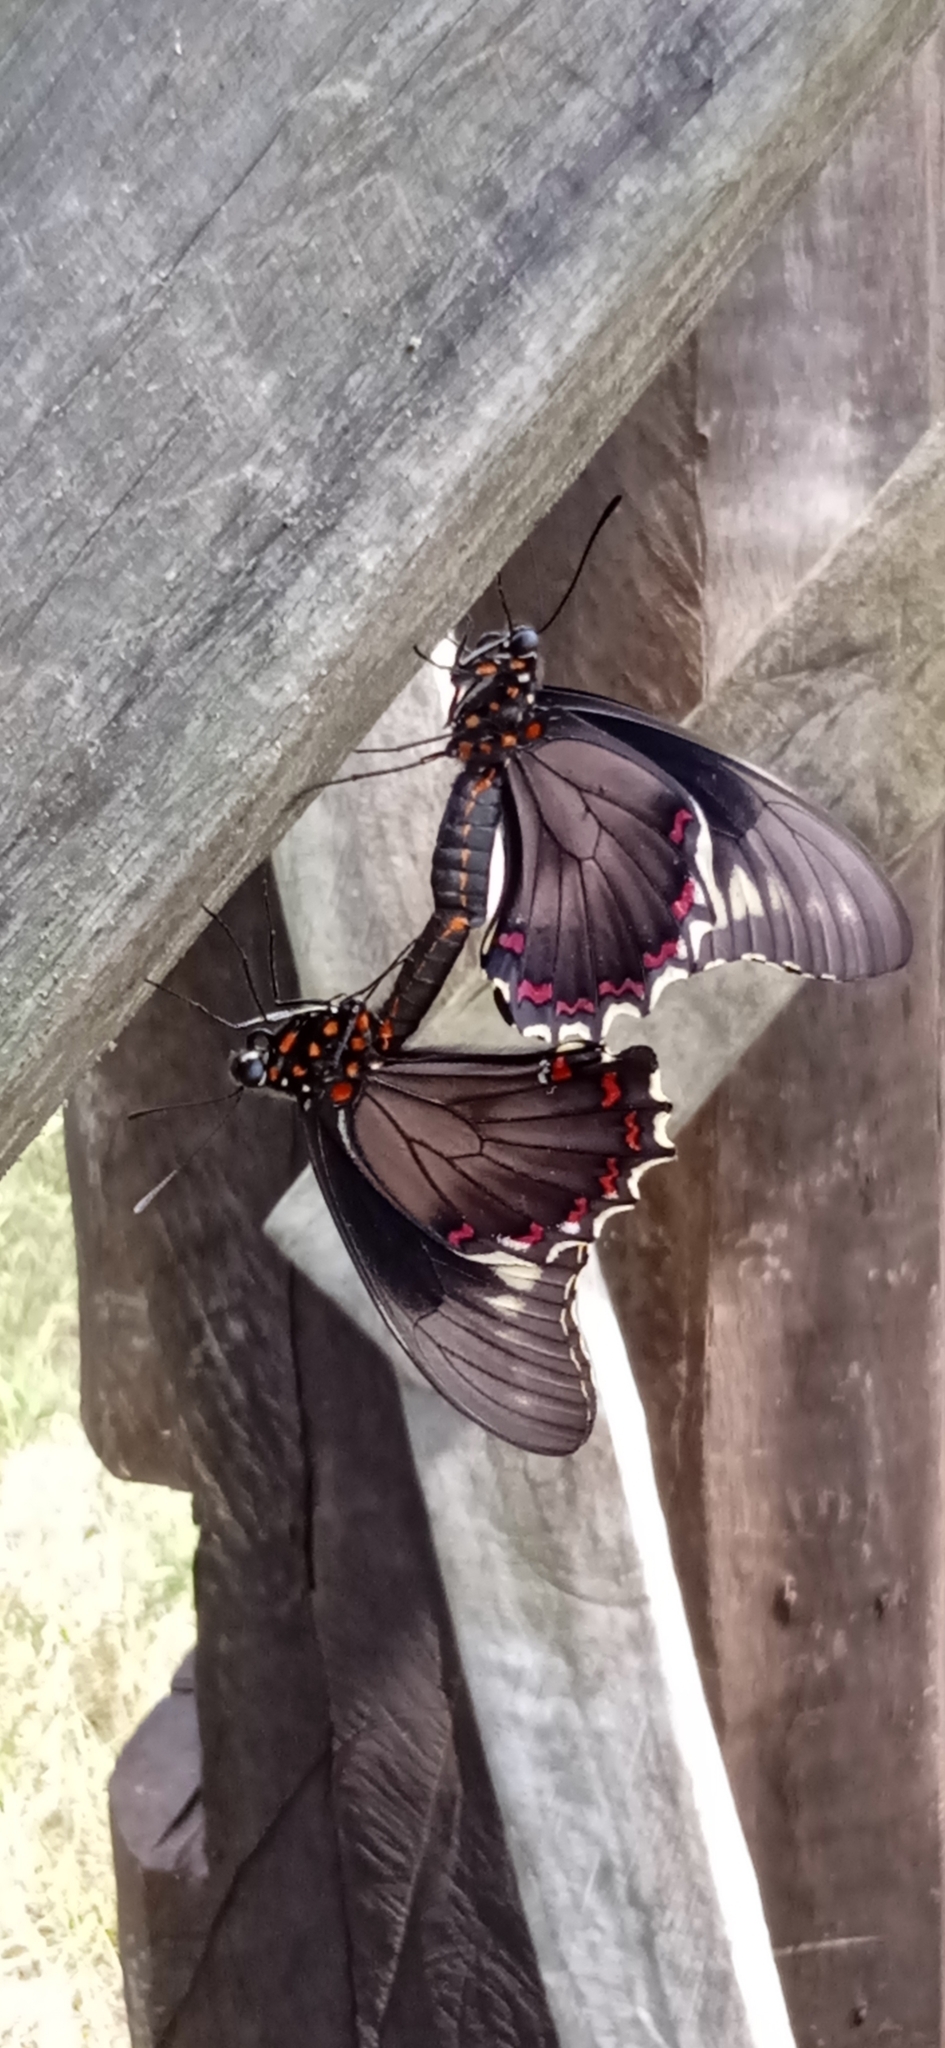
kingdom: Animalia
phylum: Arthropoda
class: Insecta
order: Lepidoptera
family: Papilionidae
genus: Battus
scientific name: Battus polydamas
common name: Polydamas swallowtail
